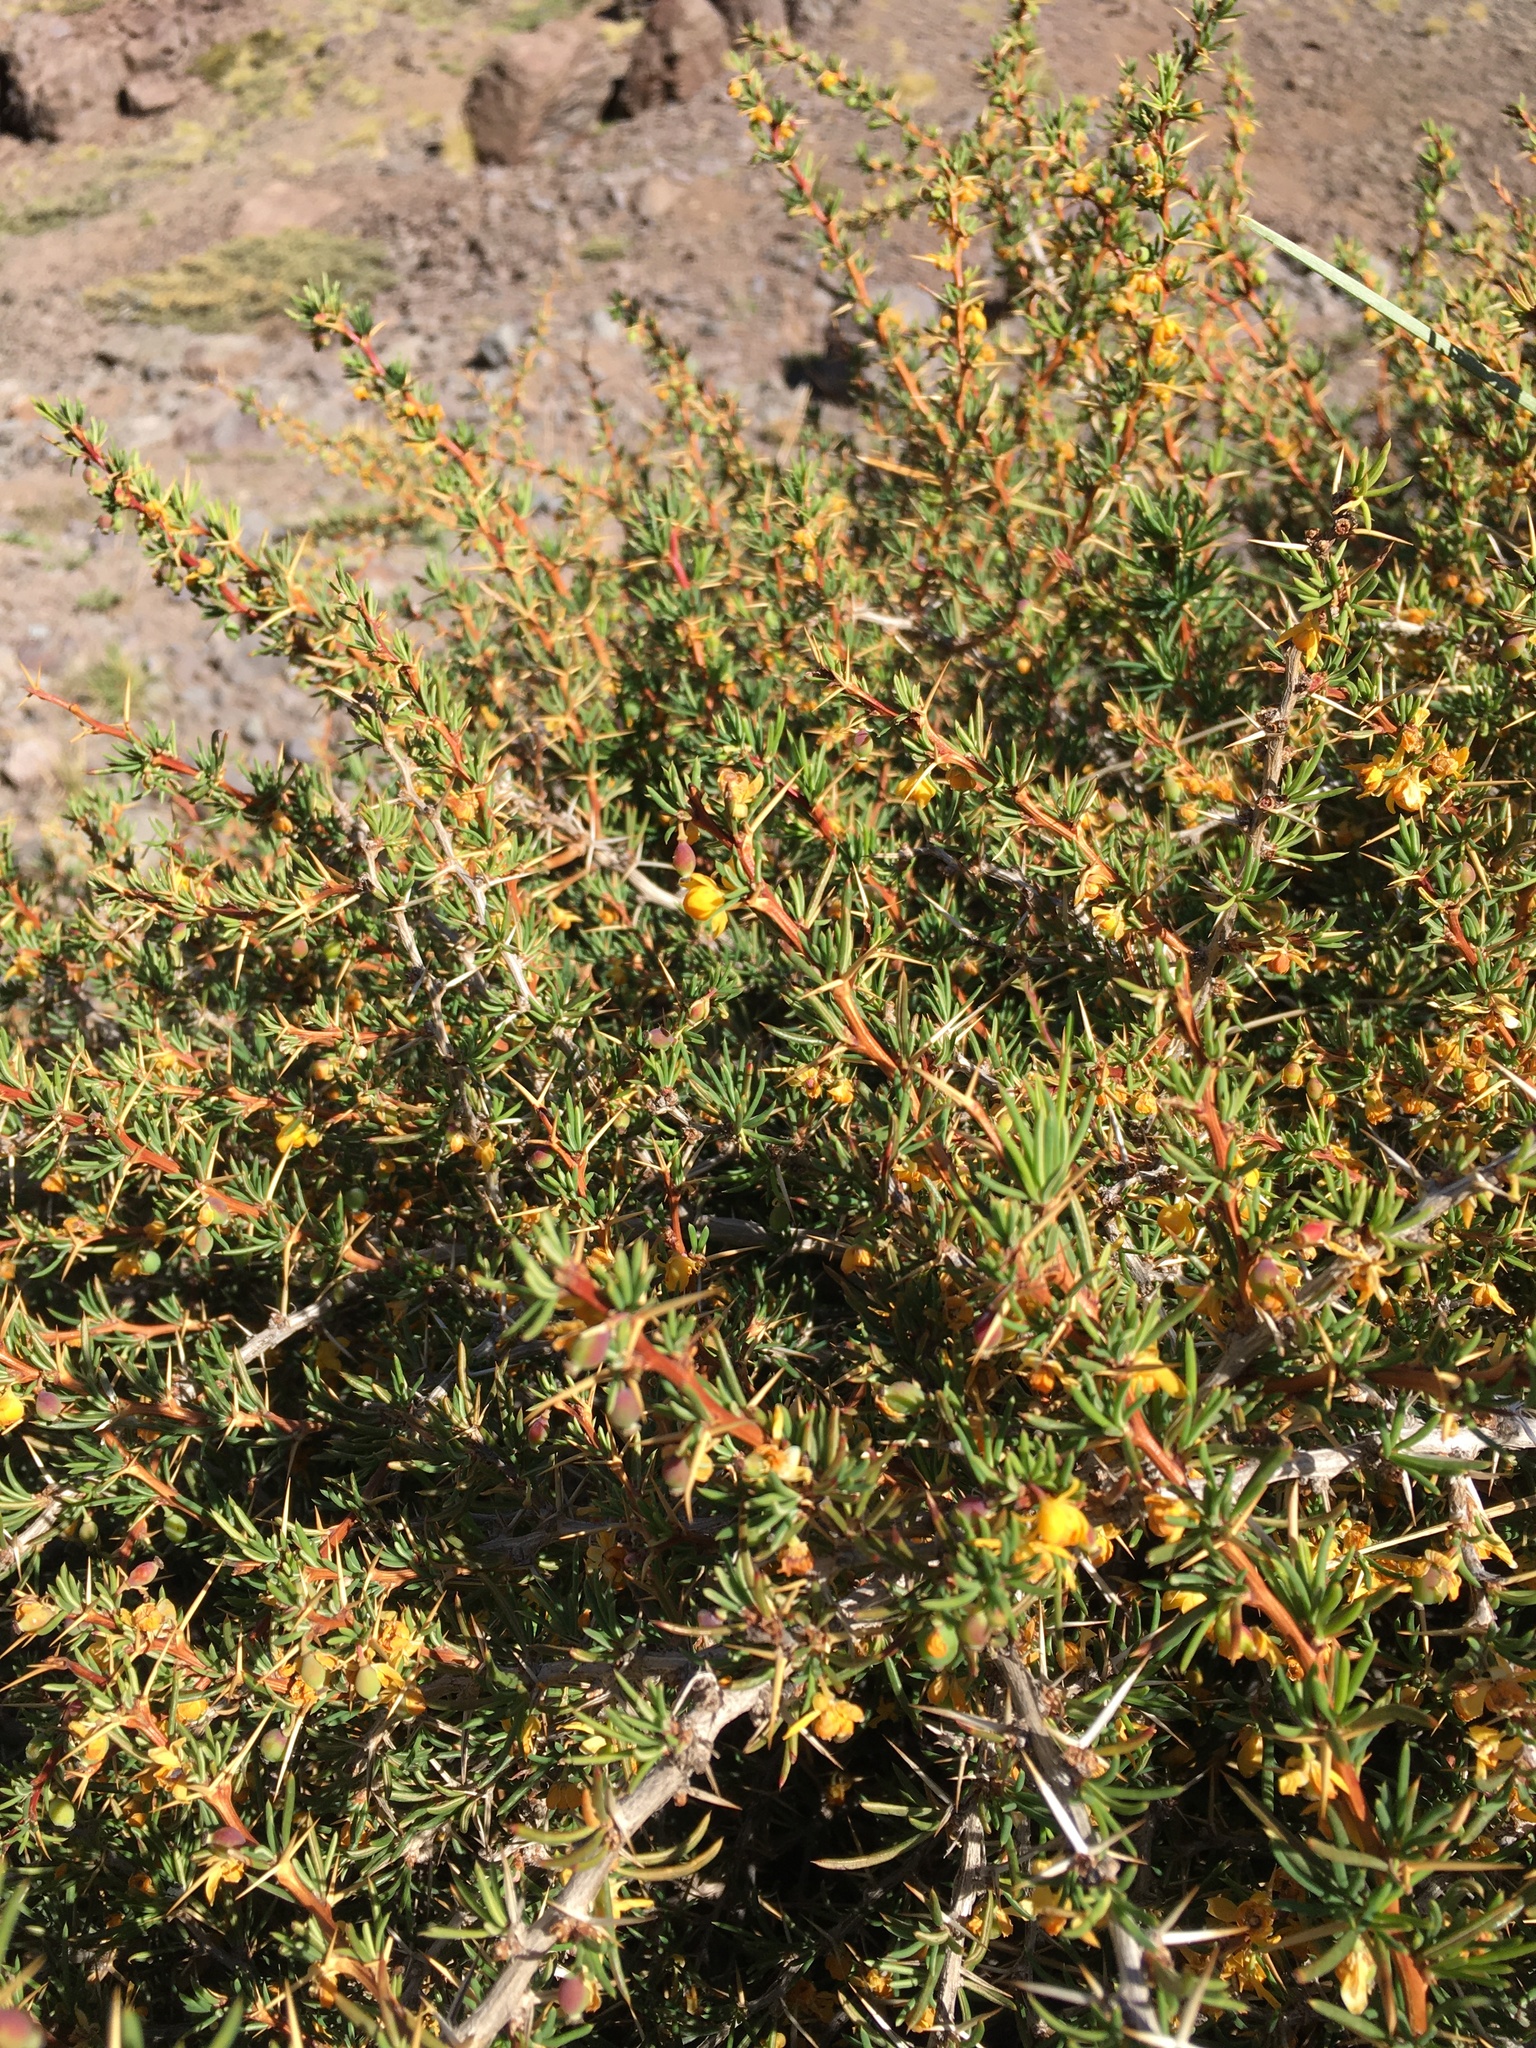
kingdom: Plantae
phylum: Tracheophyta
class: Magnoliopsida
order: Ranunculales
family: Berberidaceae
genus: Berberis
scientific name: Berberis empetrifolia
